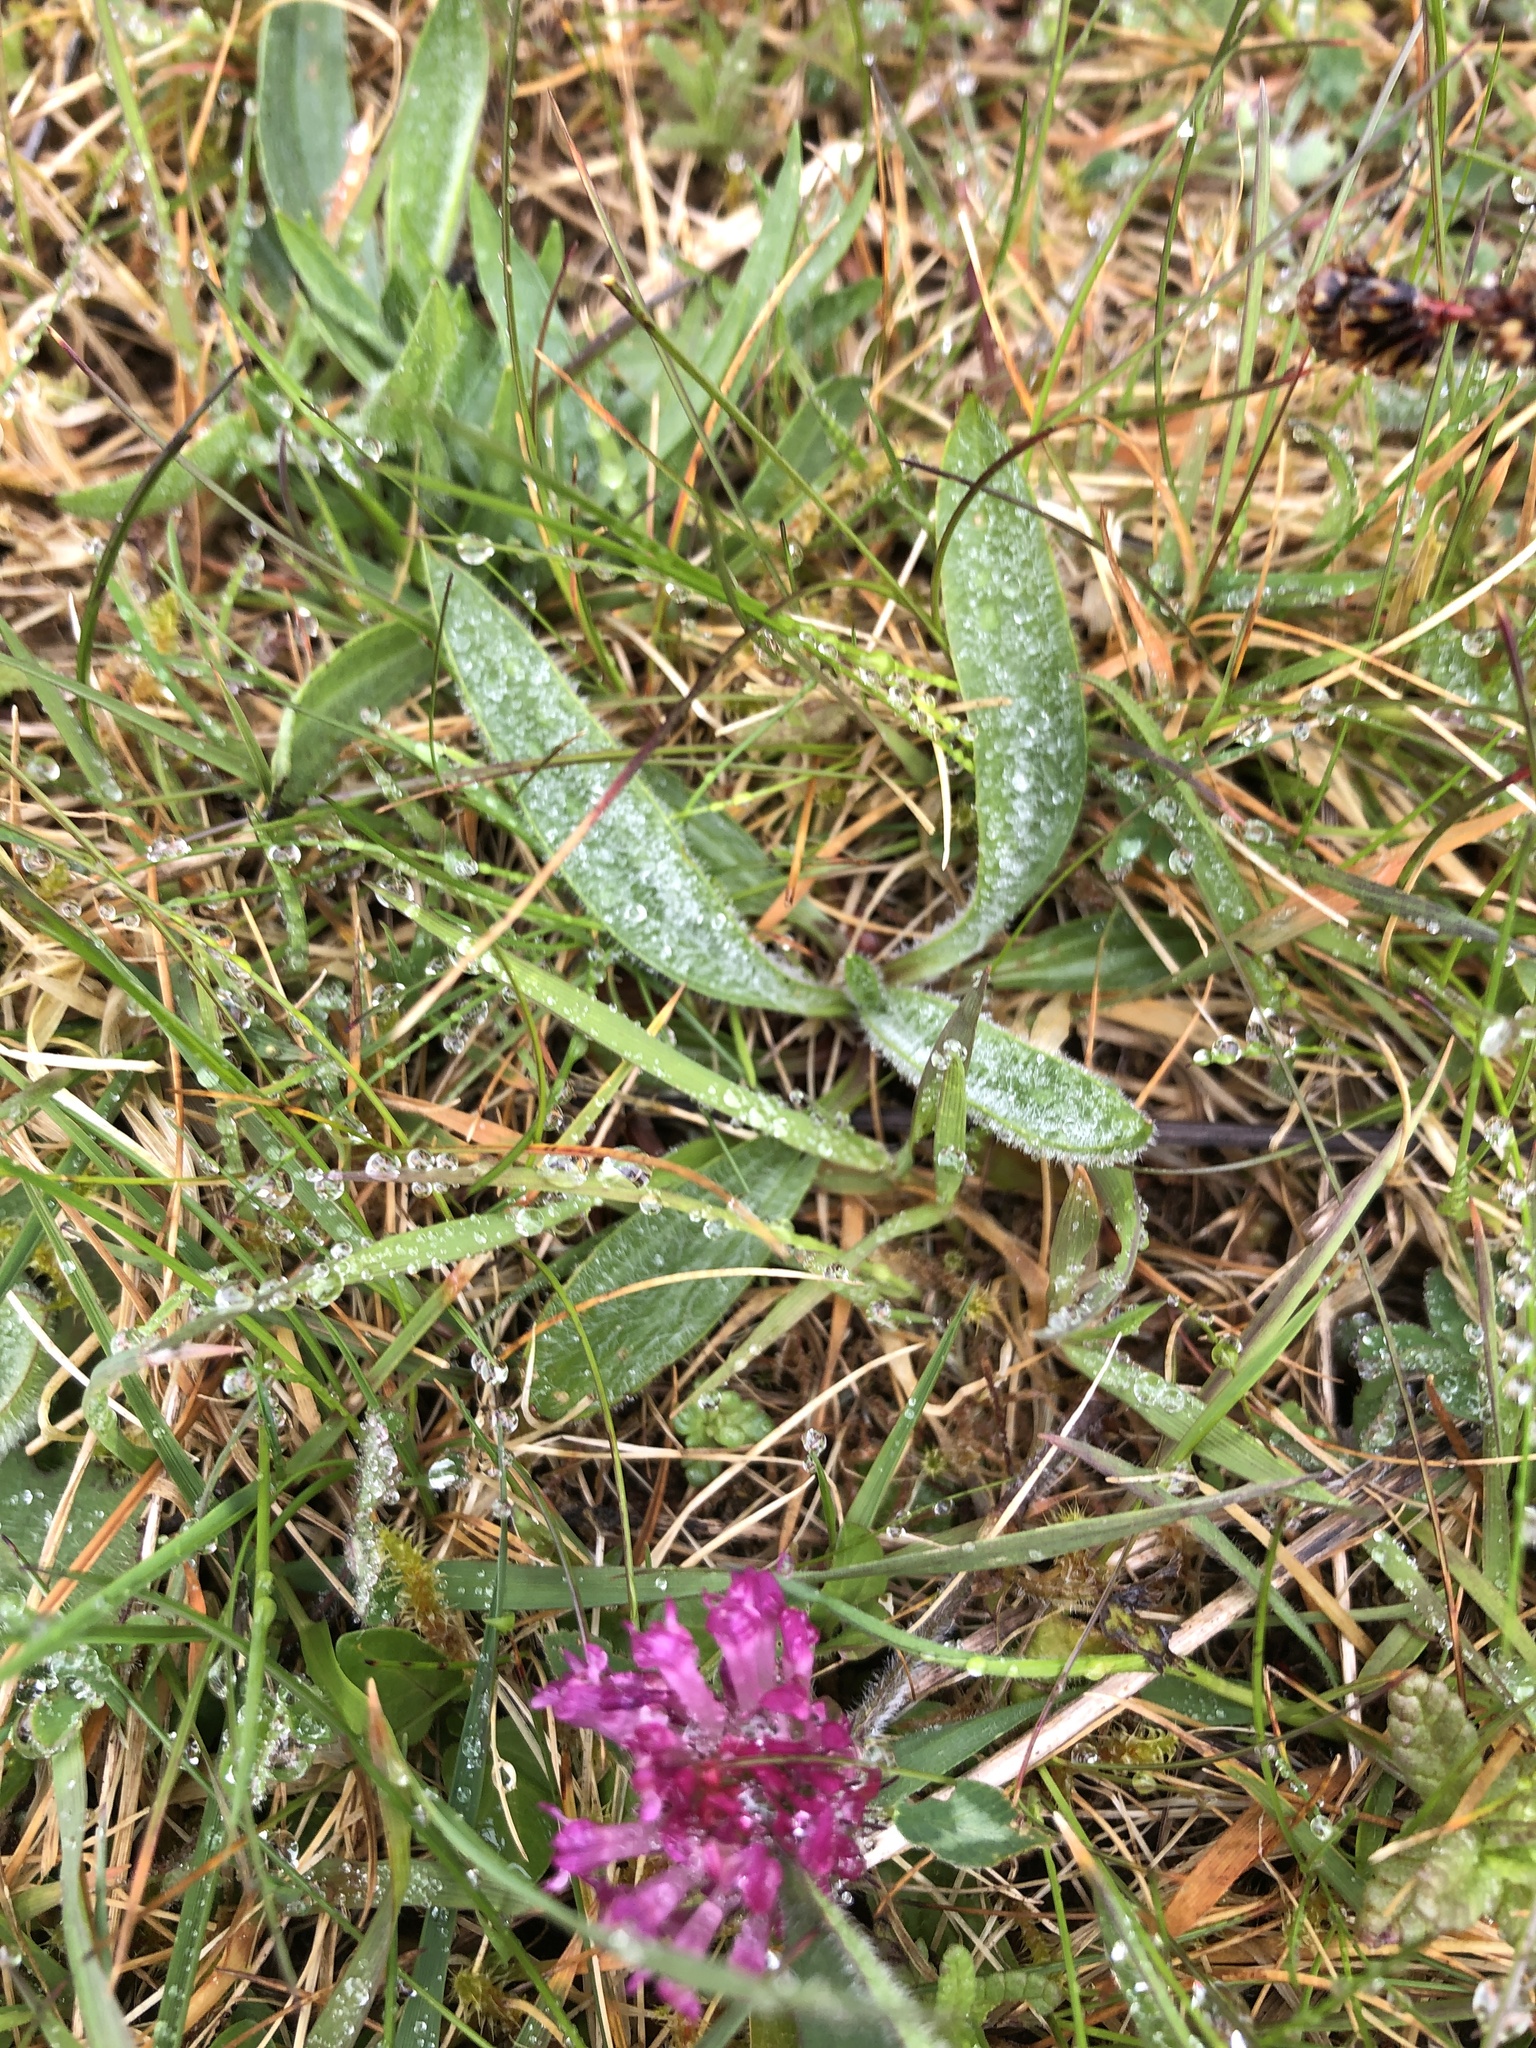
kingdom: Plantae
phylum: Tracheophyta
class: Magnoliopsida
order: Fabales
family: Fabaceae
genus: Trifolium
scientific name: Trifolium pratense
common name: Red clover
